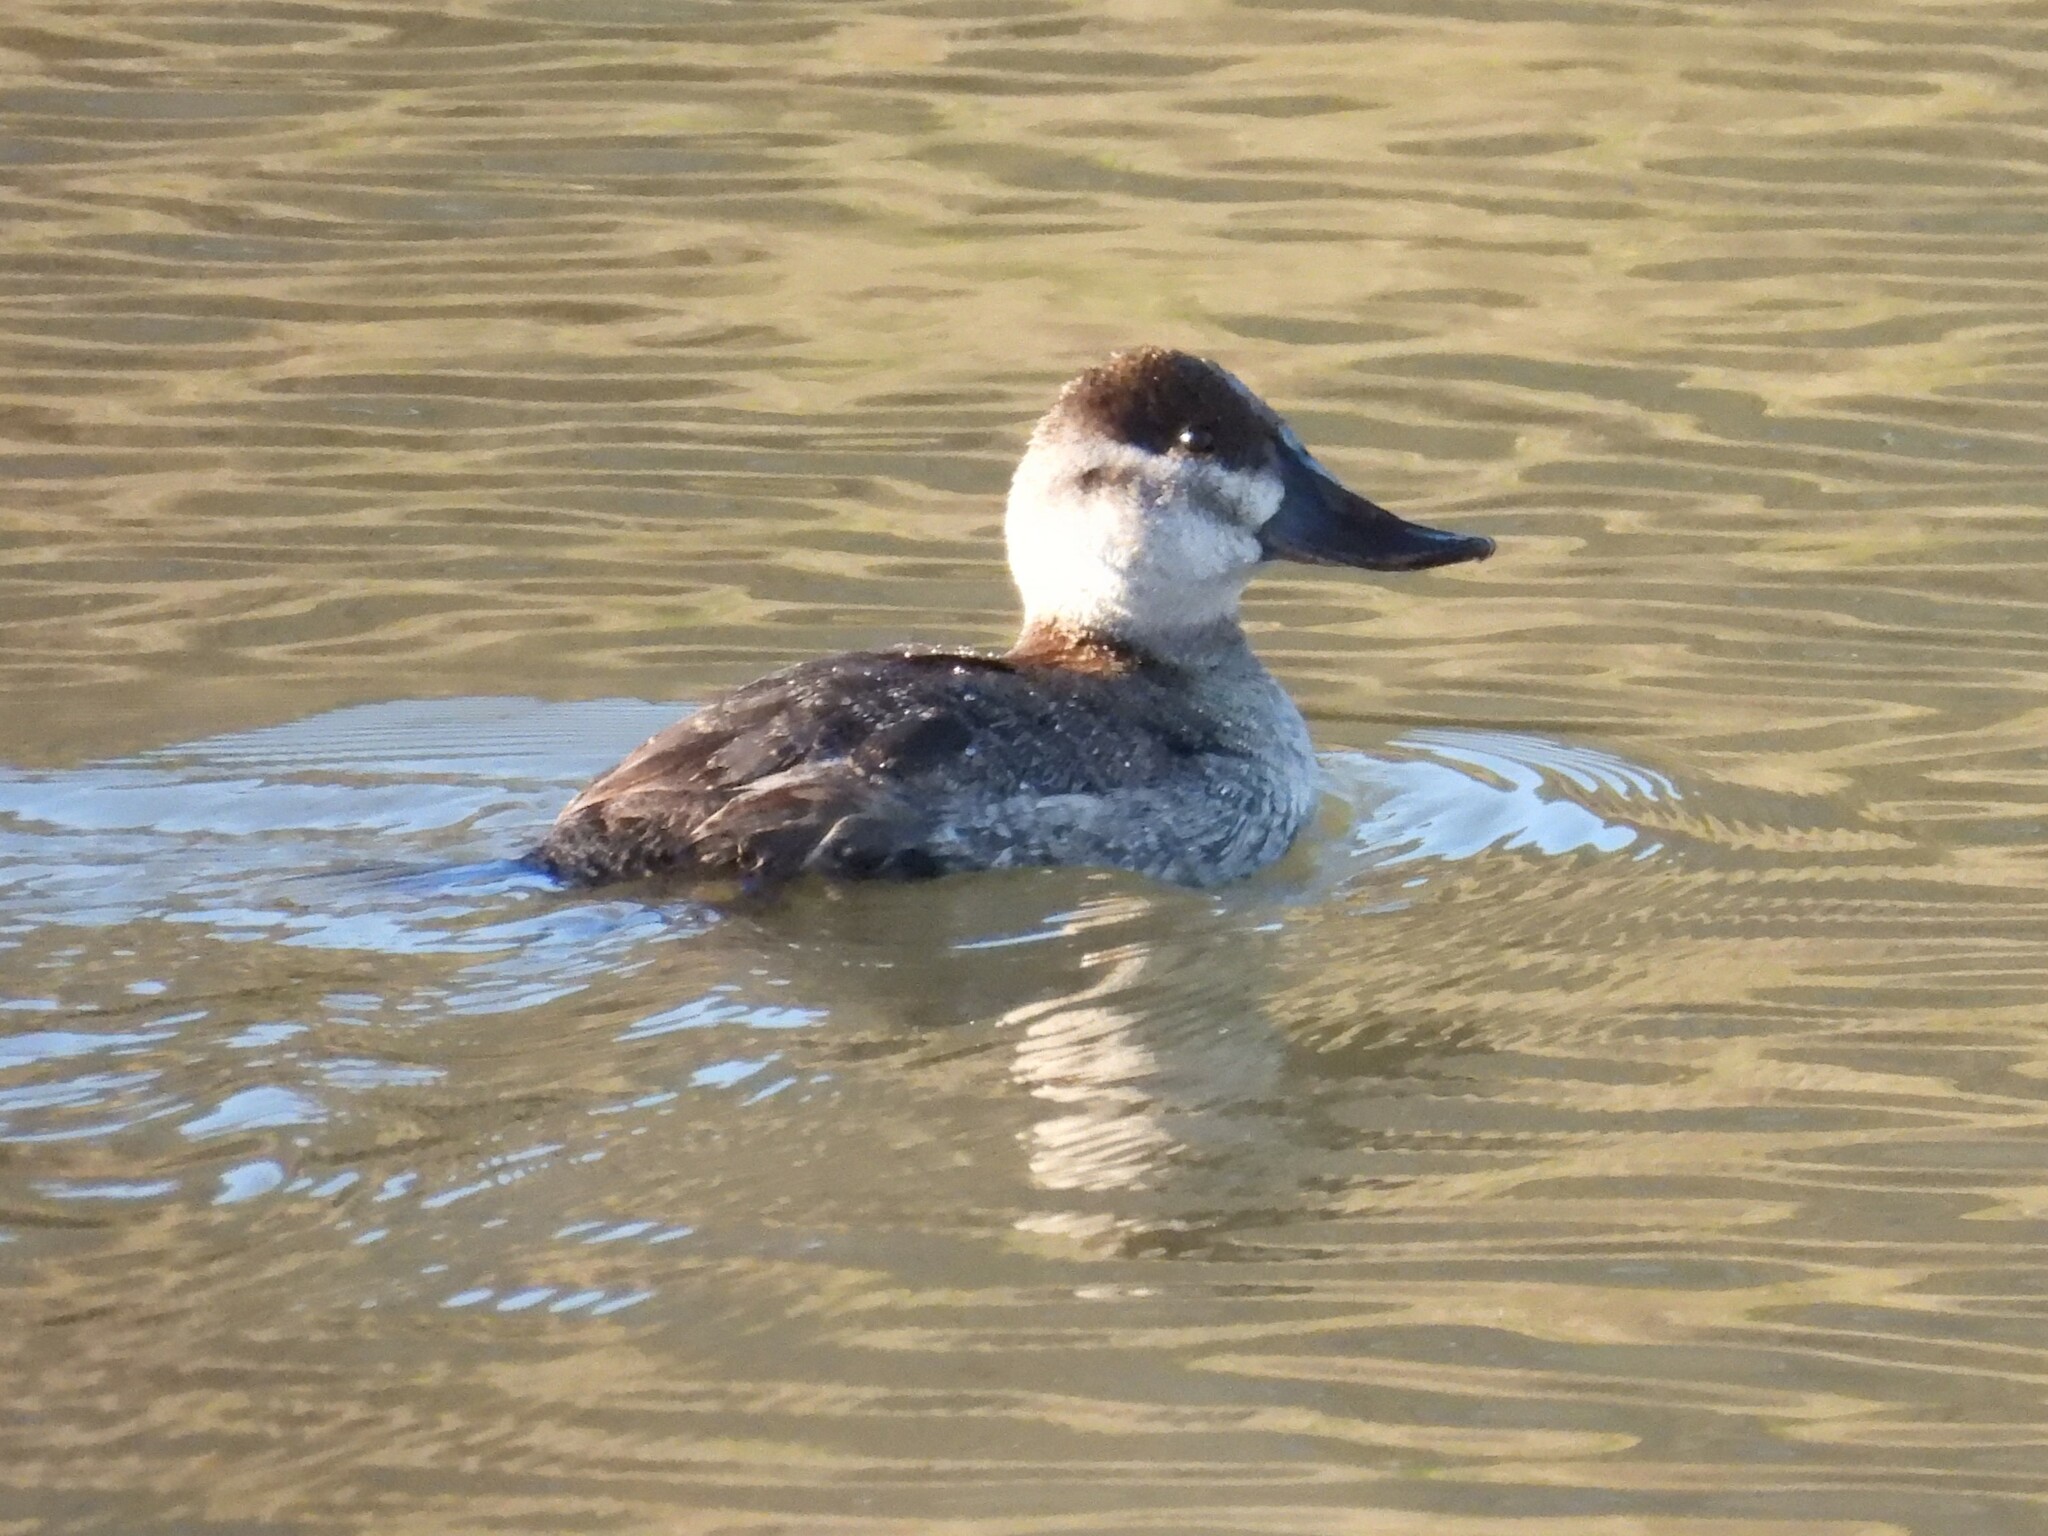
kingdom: Animalia
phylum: Chordata
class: Aves
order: Anseriformes
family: Anatidae
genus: Oxyura
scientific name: Oxyura jamaicensis
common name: Ruddy duck
